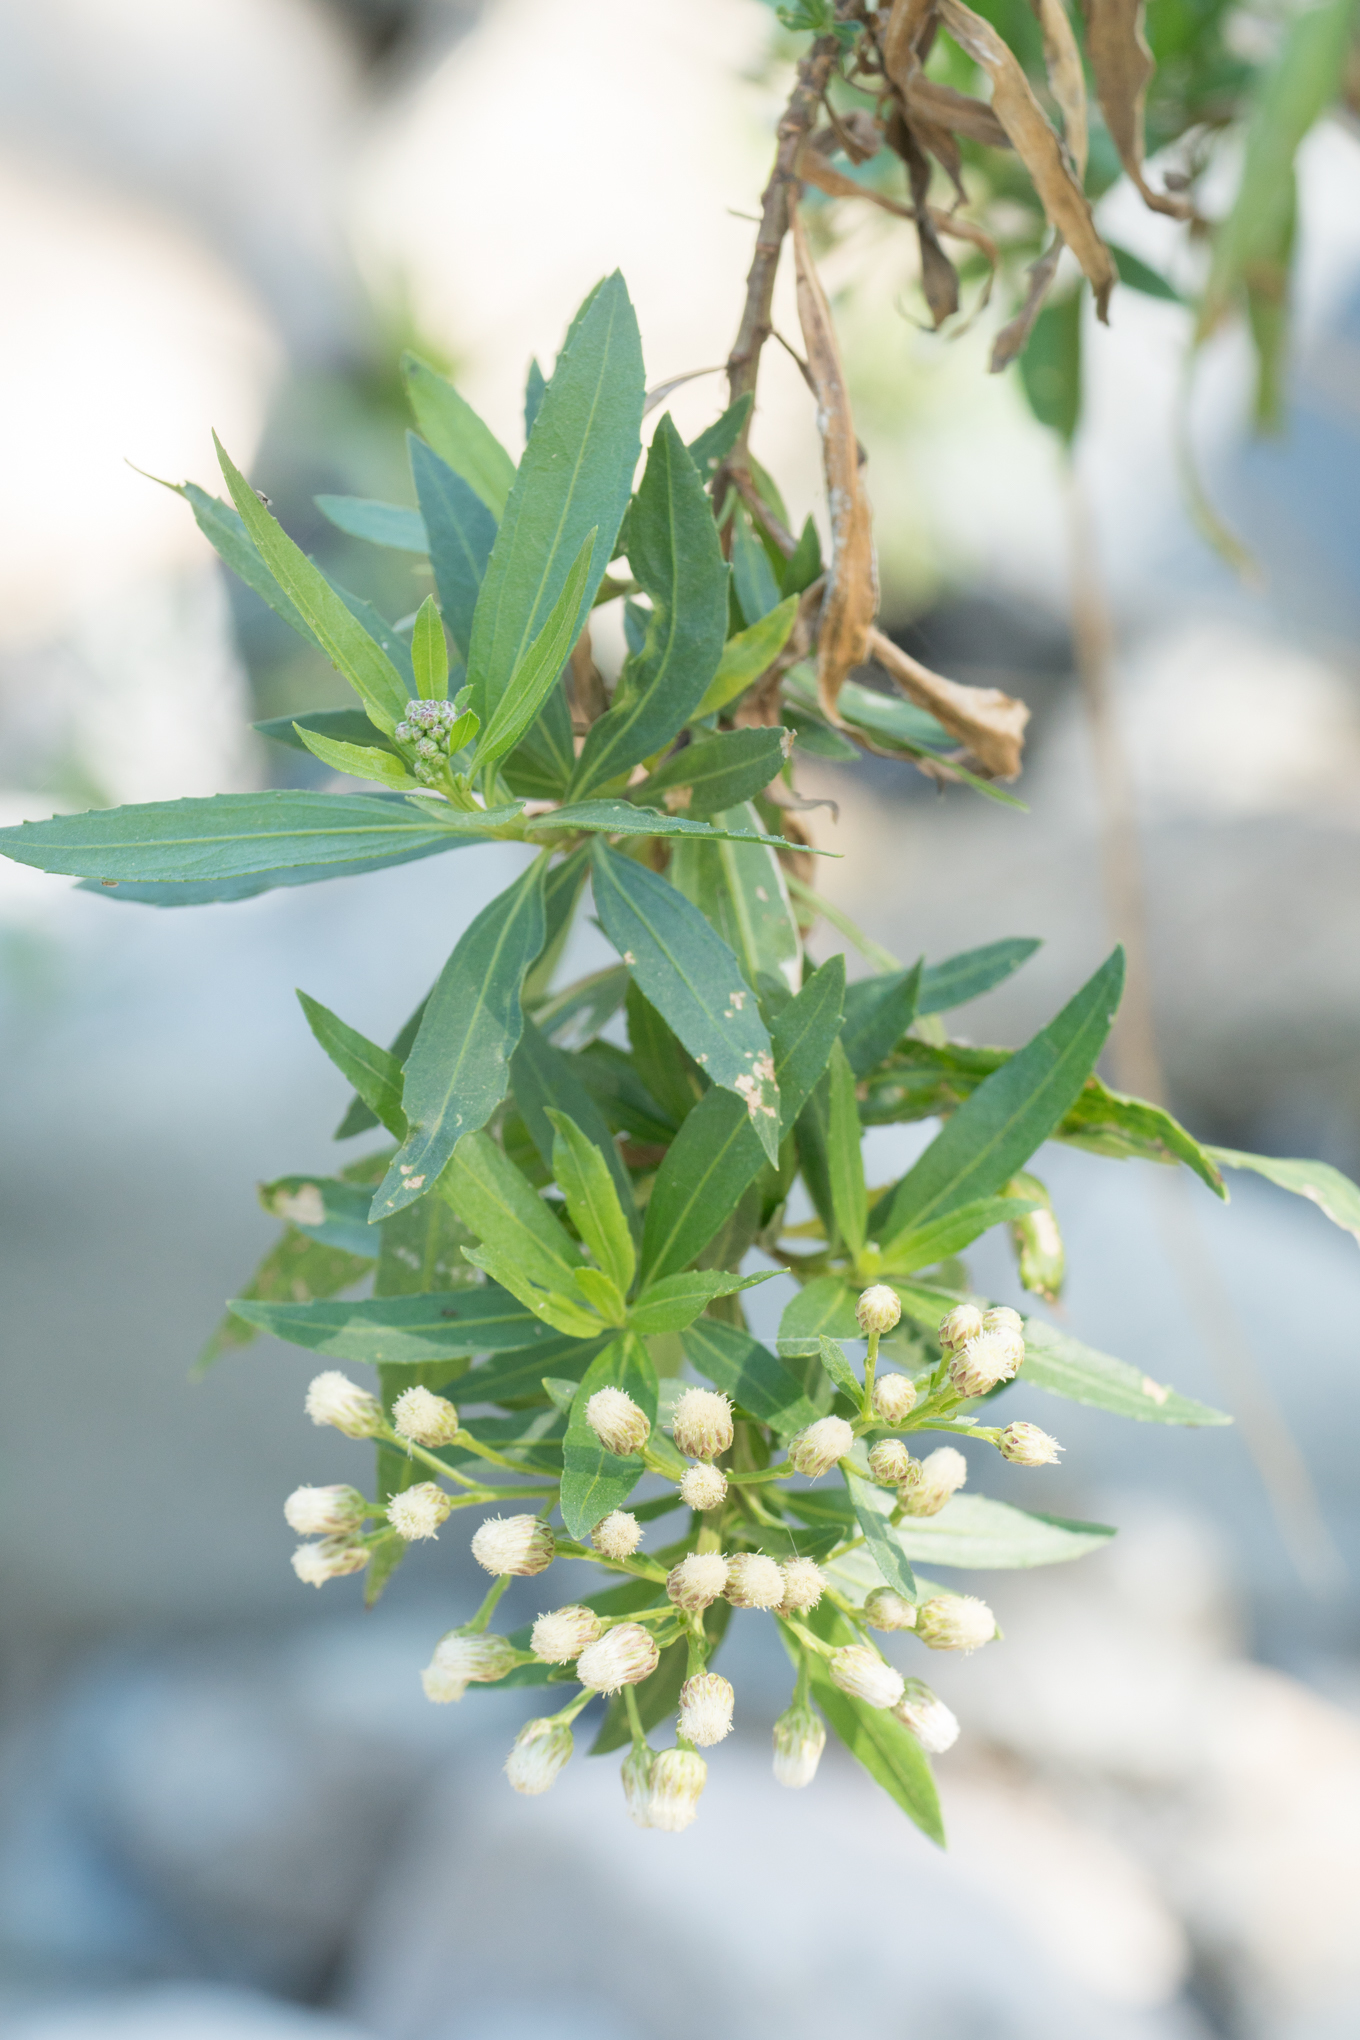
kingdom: Plantae
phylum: Tracheophyta
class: Magnoliopsida
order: Asterales
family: Asteraceae
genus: Baccharis
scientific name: Baccharis salicifolia
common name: Sticky baccharis
